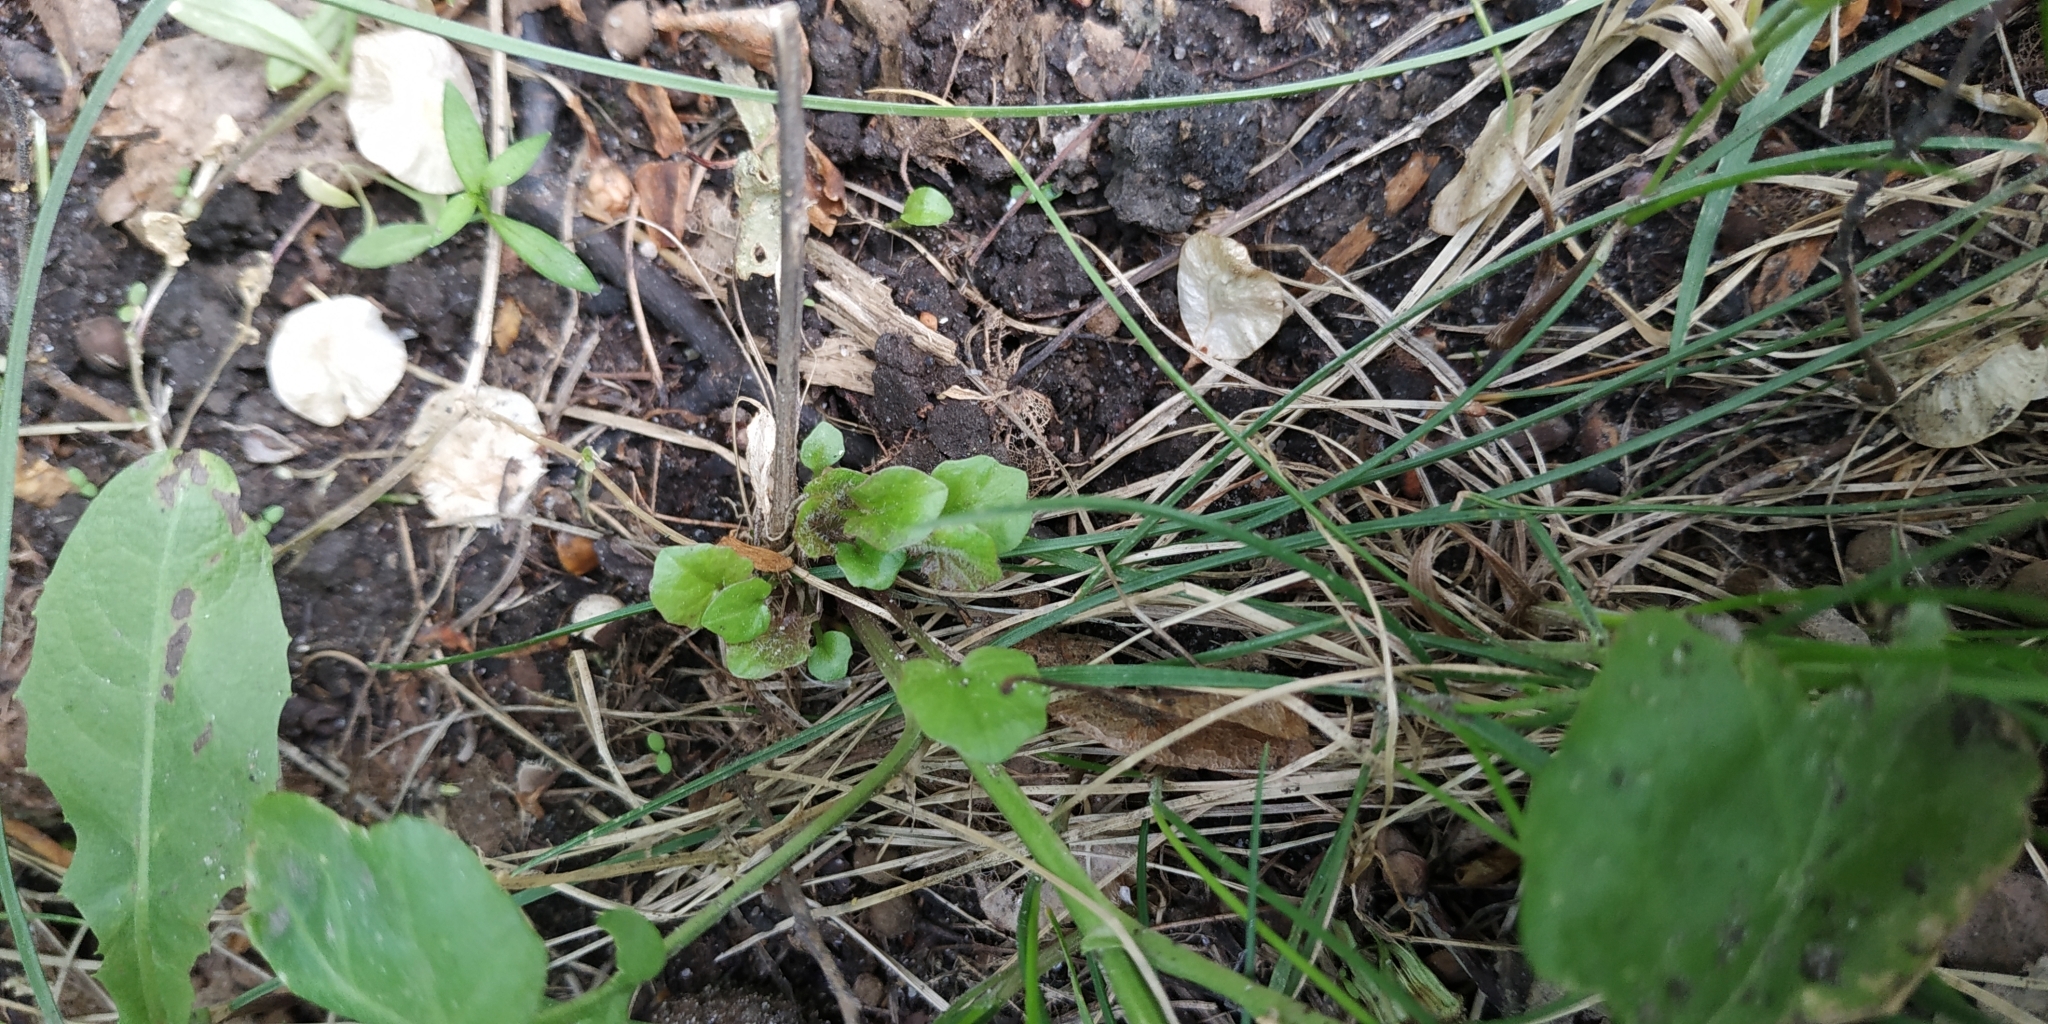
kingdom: Plantae
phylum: Tracheophyta
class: Magnoliopsida
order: Brassicales
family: Brassicaceae
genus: Erysimum
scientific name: Erysimum cheiranthoides
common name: Treacle mustard
